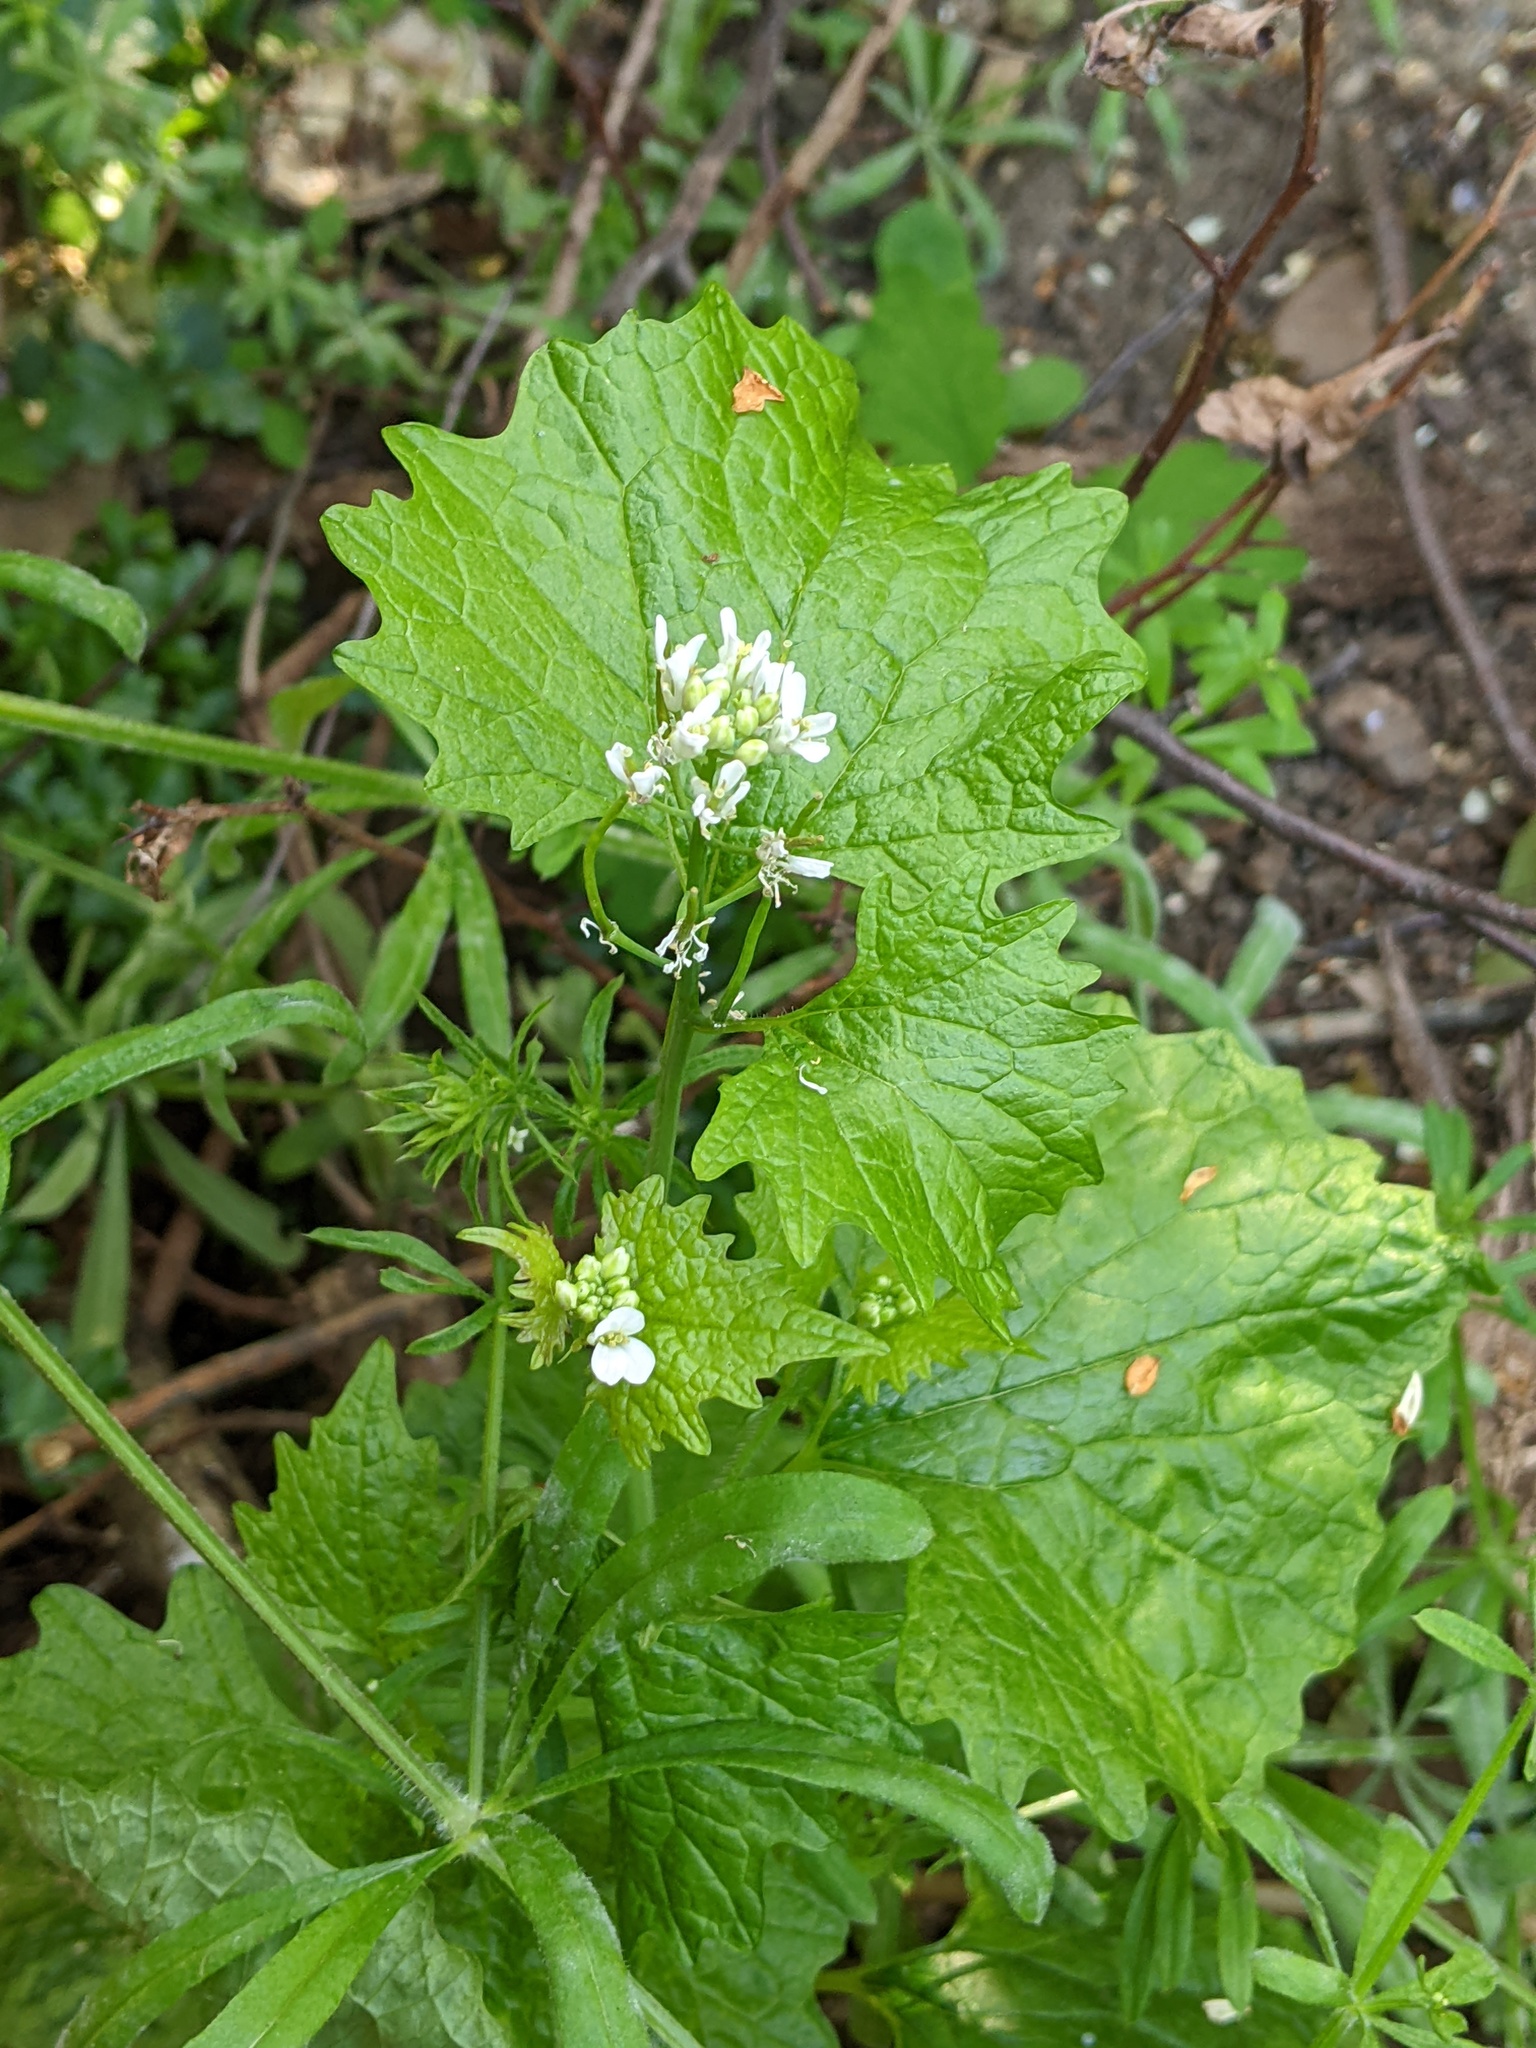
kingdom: Plantae
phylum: Tracheophyta
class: Magnoliopsida
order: Brassicales
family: Brassicaceae
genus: Alliaria
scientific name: Alliaria petiolata
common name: Garlic mustard
